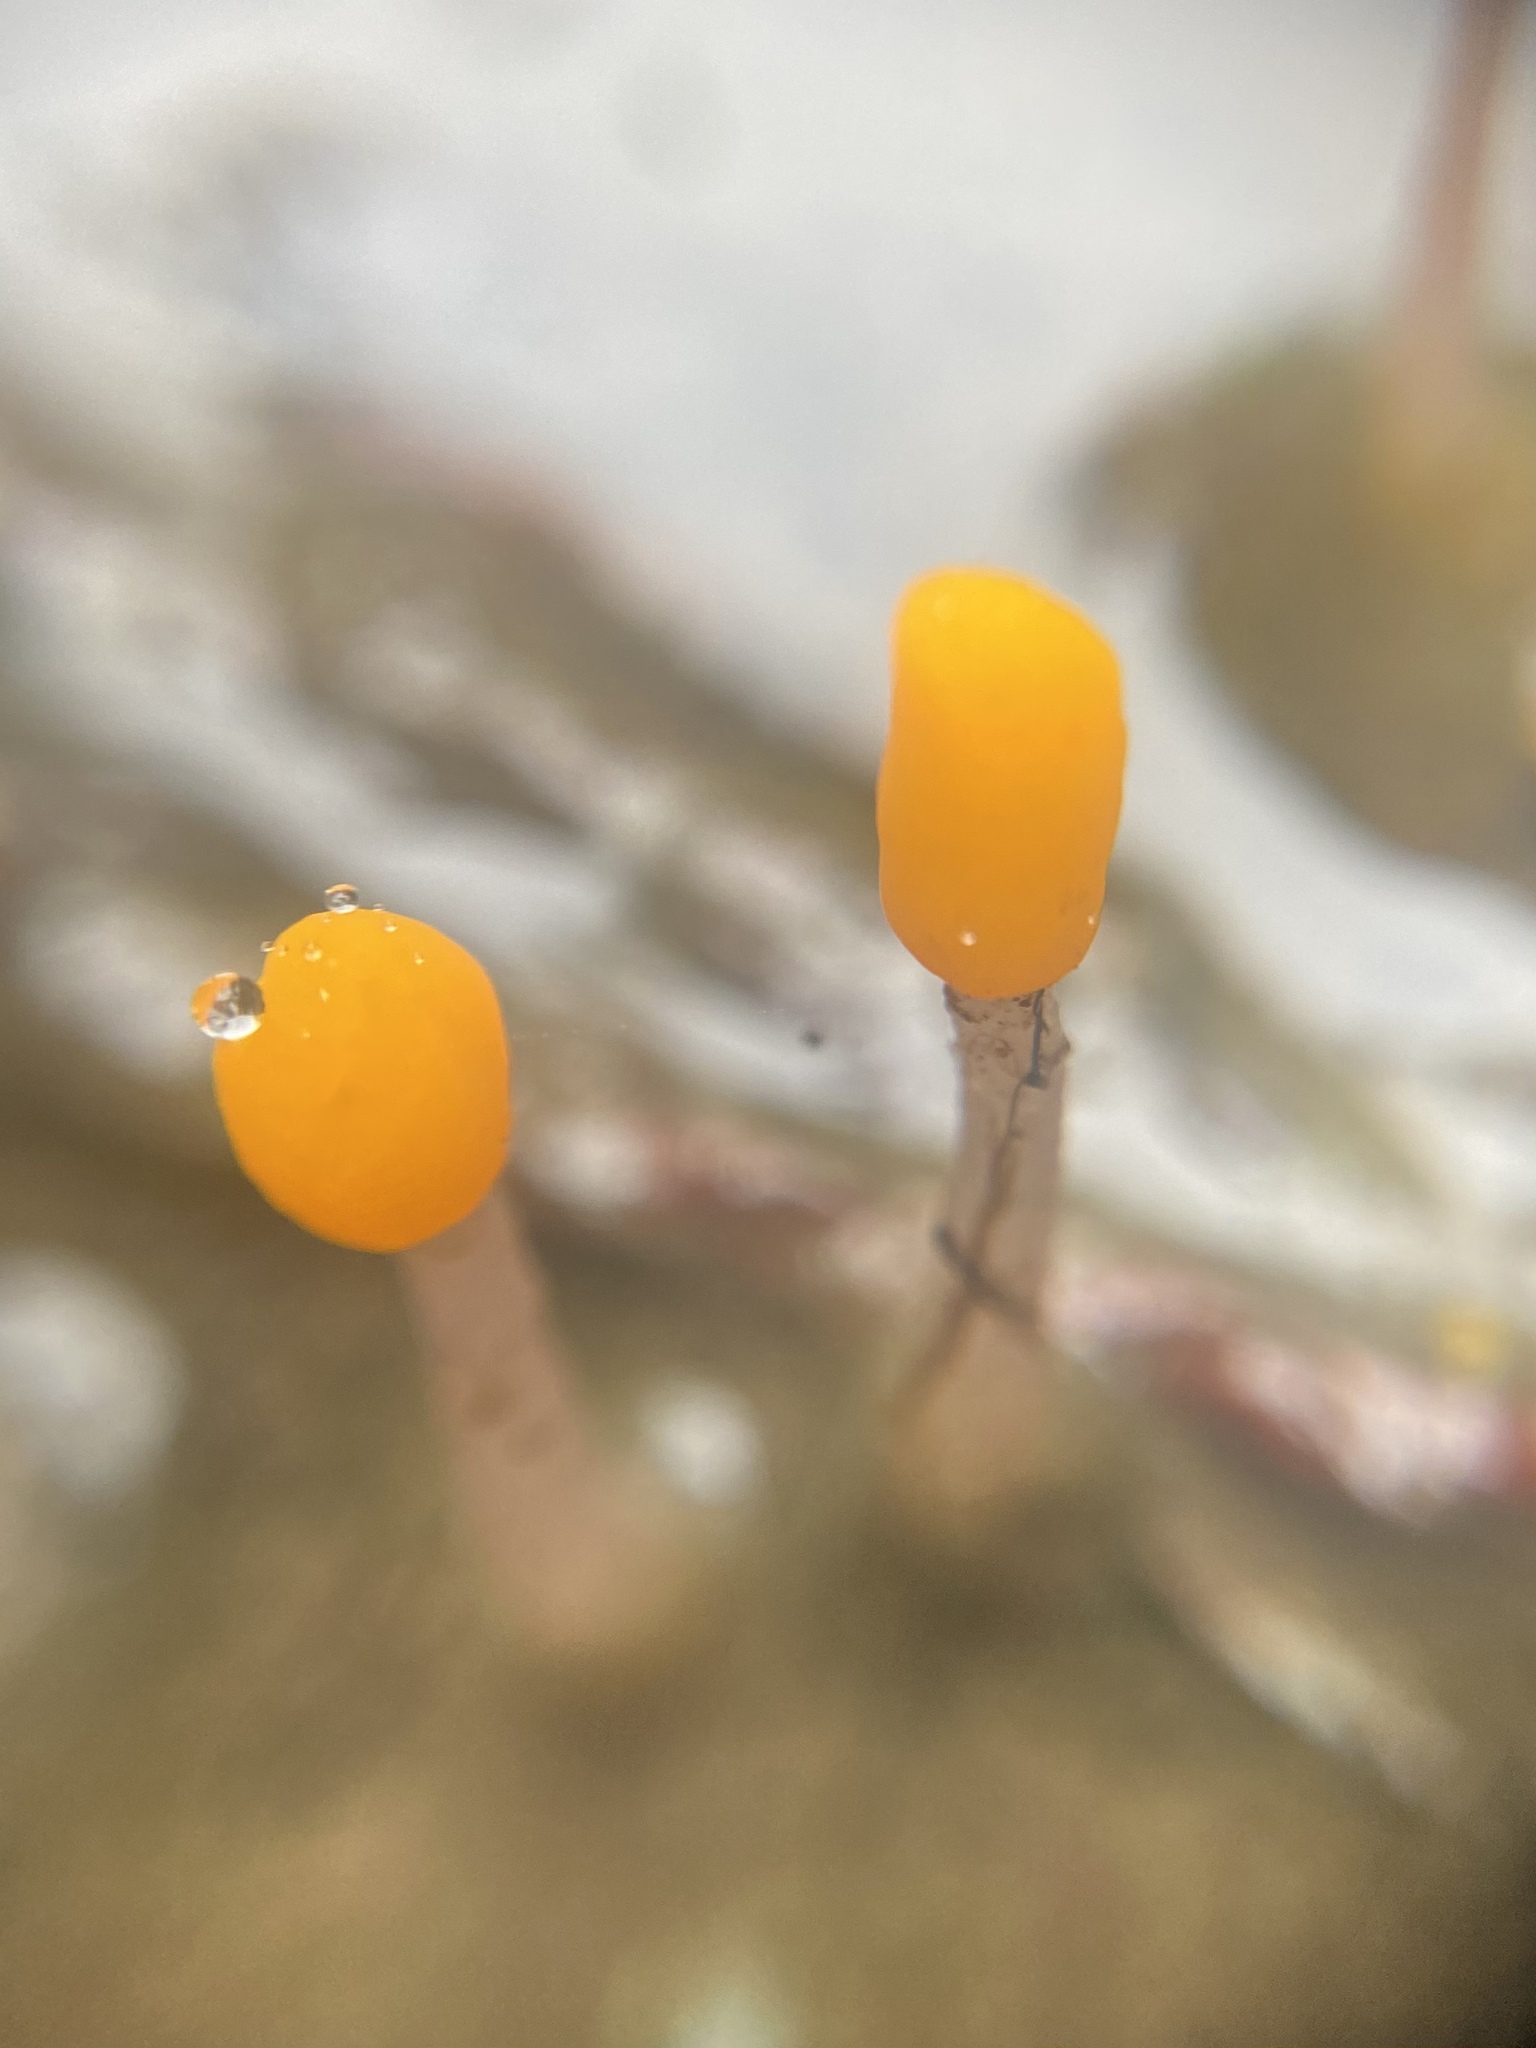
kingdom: Fungi
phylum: Ascomycota
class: Leotiomycetes
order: Helotiales
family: Sclerotiniaceae
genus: Mitrula
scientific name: Mitrula elegans
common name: Swamp beacon
